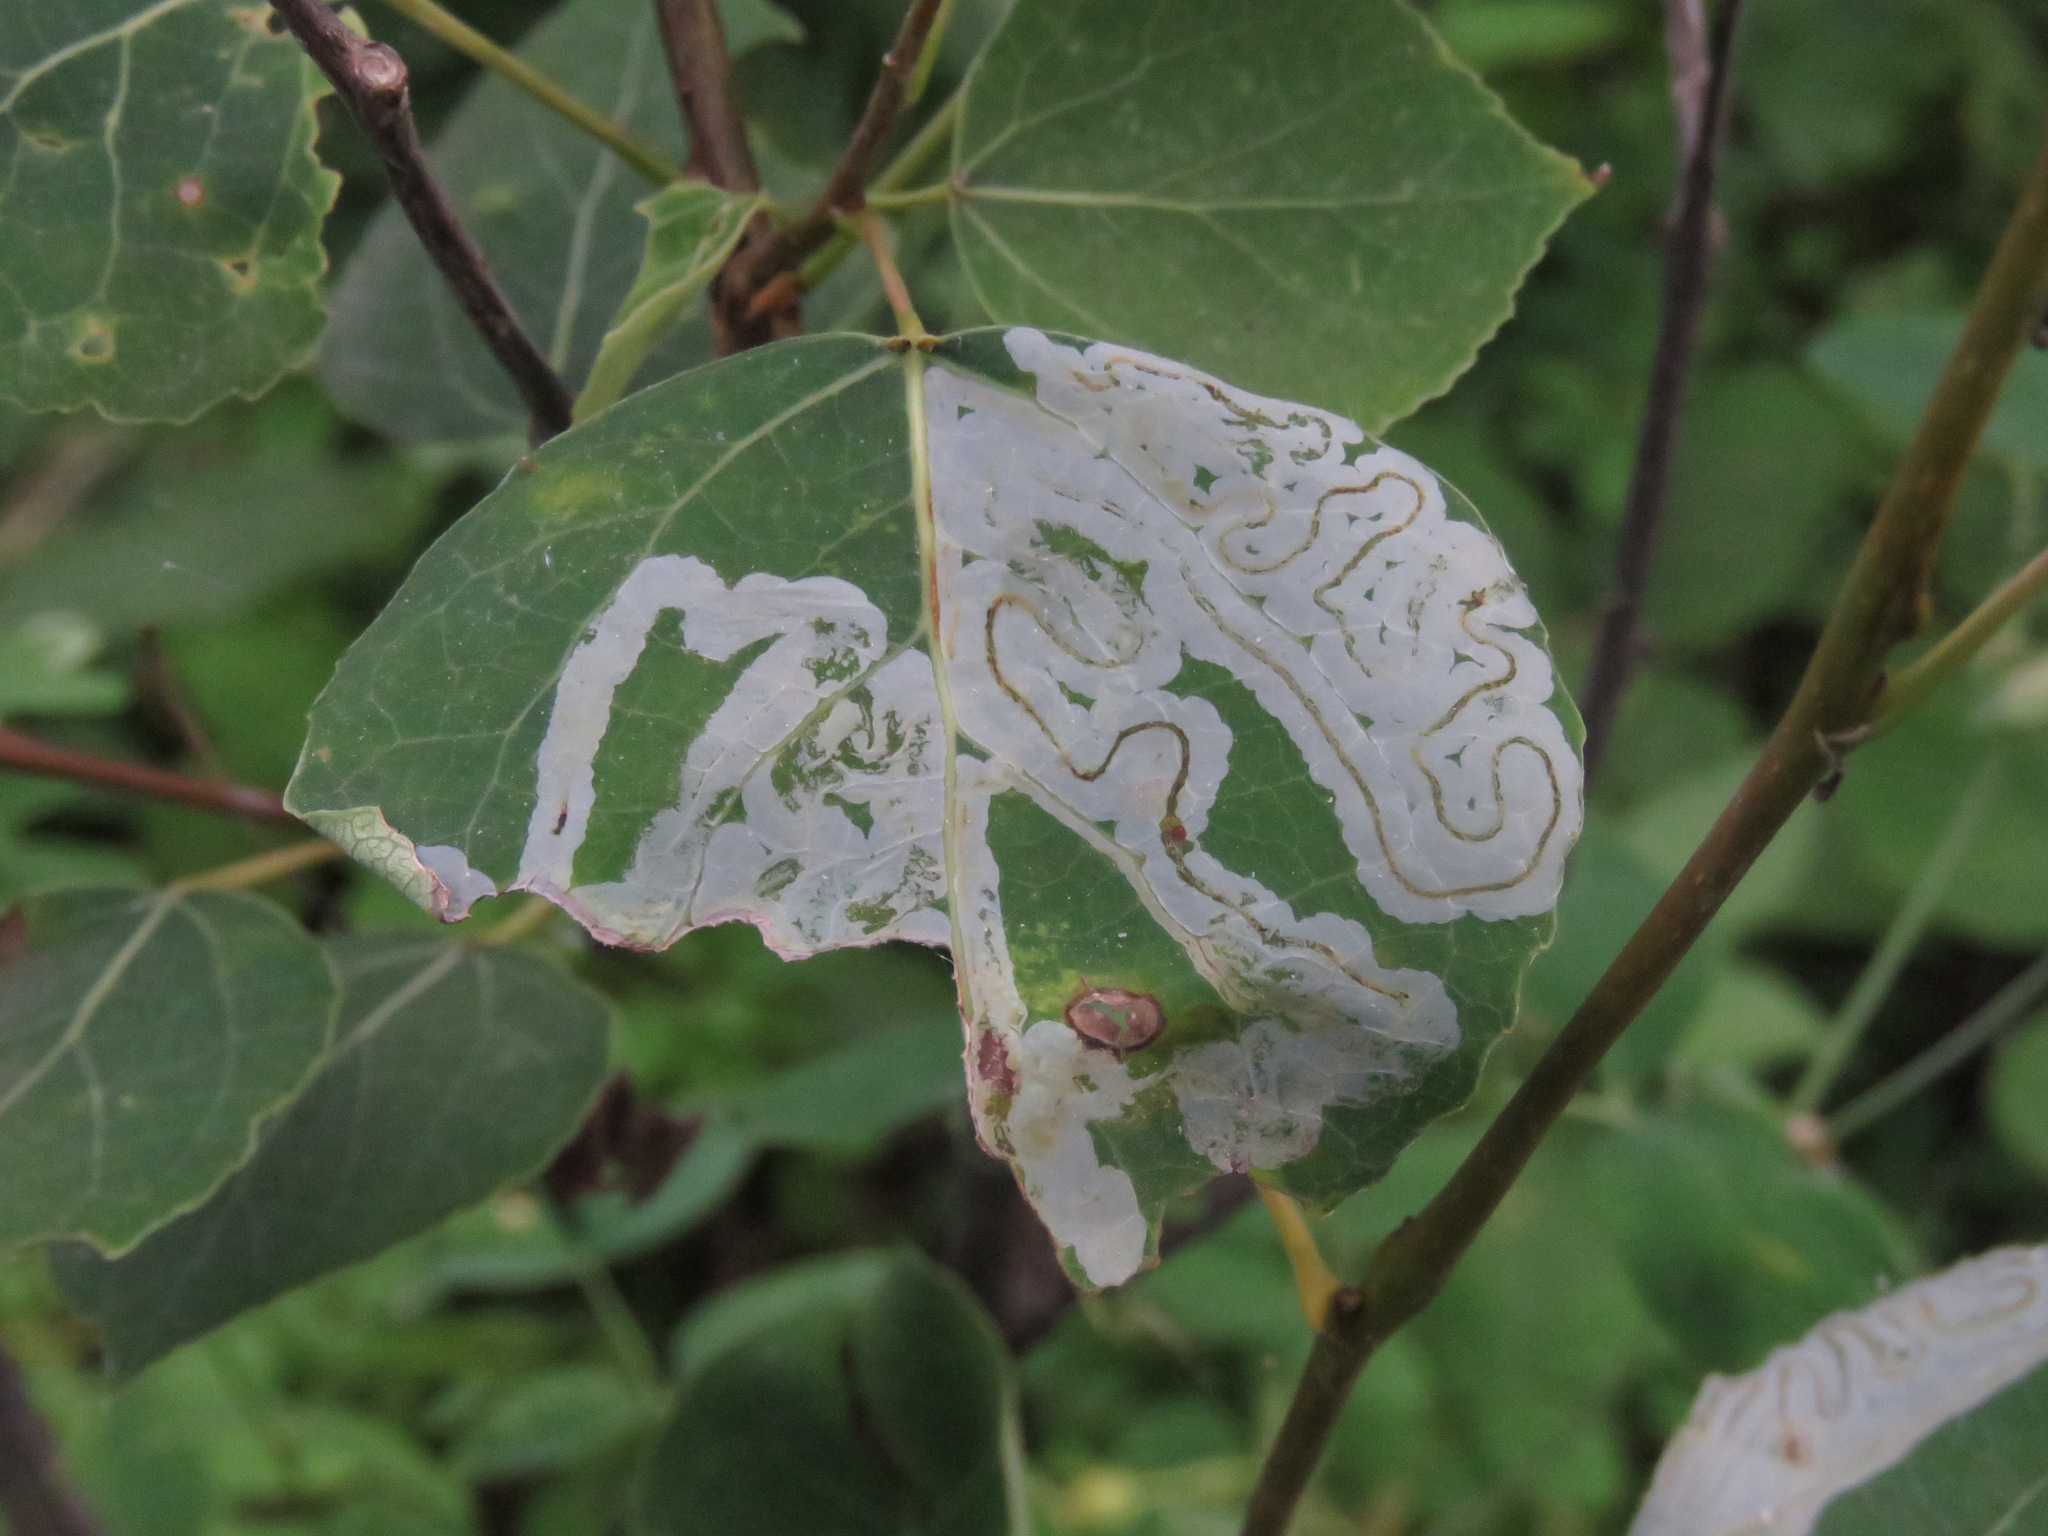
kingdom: Animalia
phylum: Arthropoda
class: Insecta
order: Lepidoptera
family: Gracillariidae
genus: Phyllocnistis
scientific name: Phyllocnistis populiella
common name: Aspen serpentine leafminer moth
